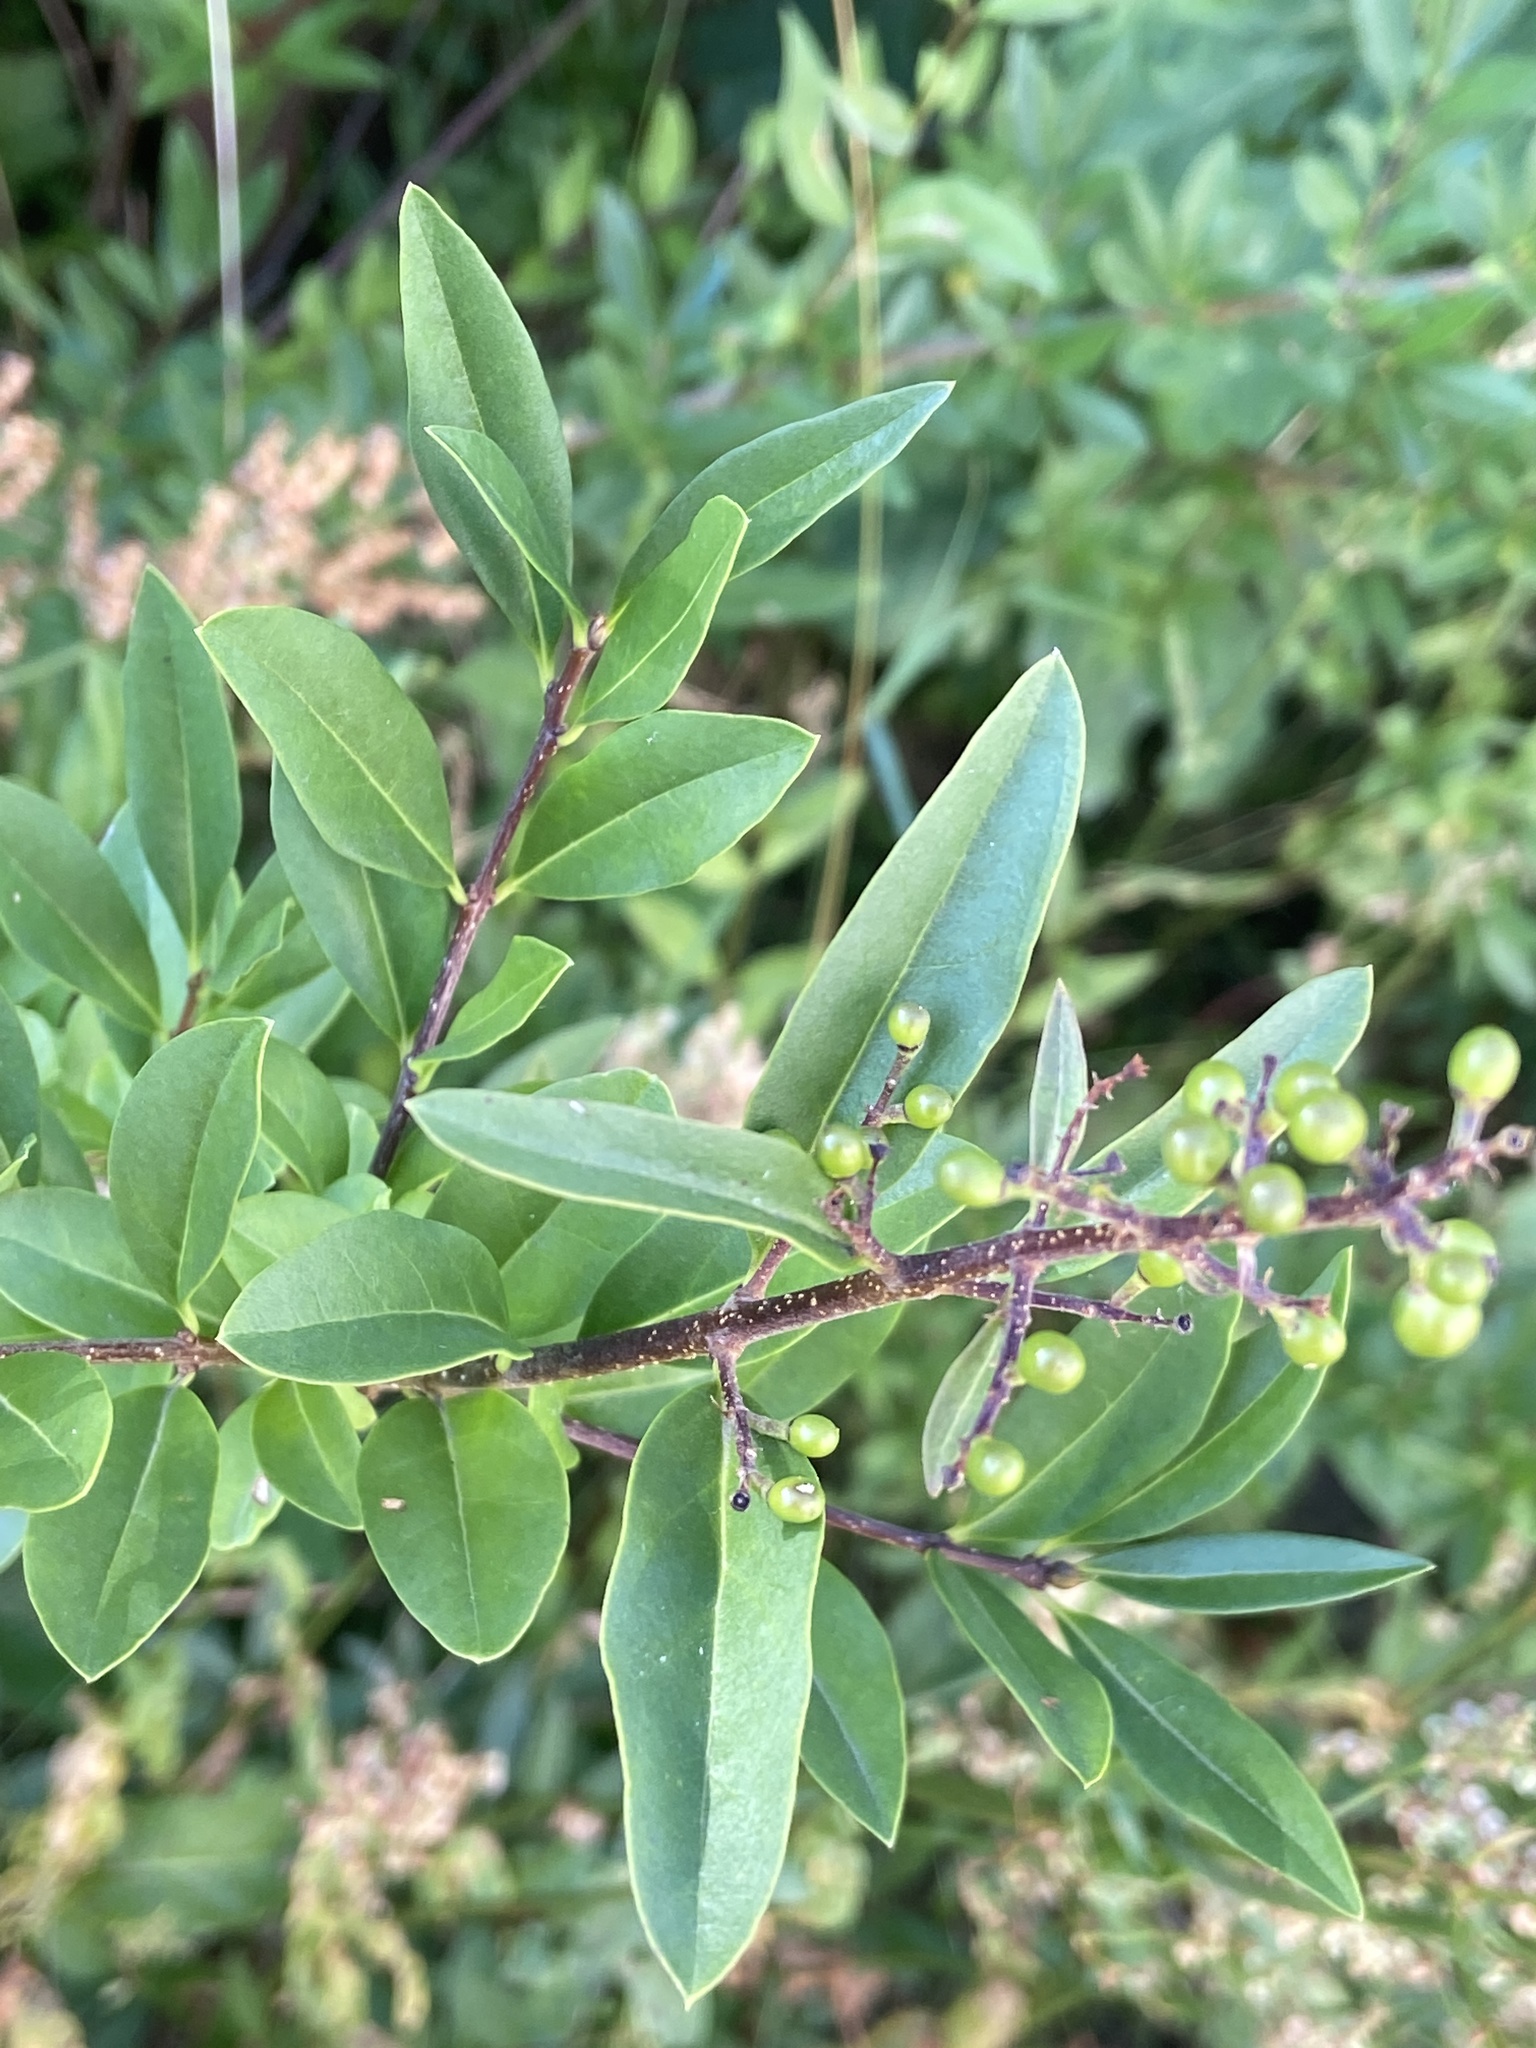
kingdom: Plantae
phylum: Tracheophyta
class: Magnoliopsida
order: Lamiales
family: Oleaceae
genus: Ligustrum
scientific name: Ligustrum vulgare
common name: Wild privet
